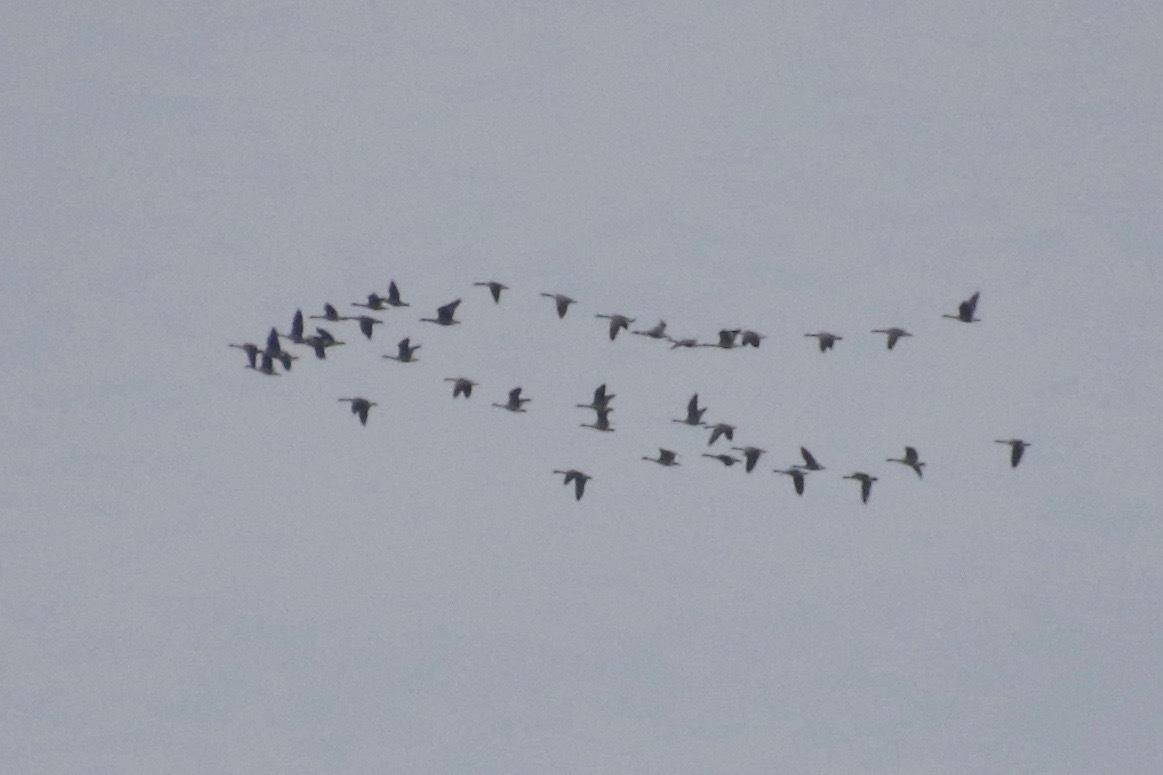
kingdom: Animalia
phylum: Chordata
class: Aves
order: Anseriformes
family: Anatidae
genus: Anser
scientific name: Anser caerulescens
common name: Snow goose
